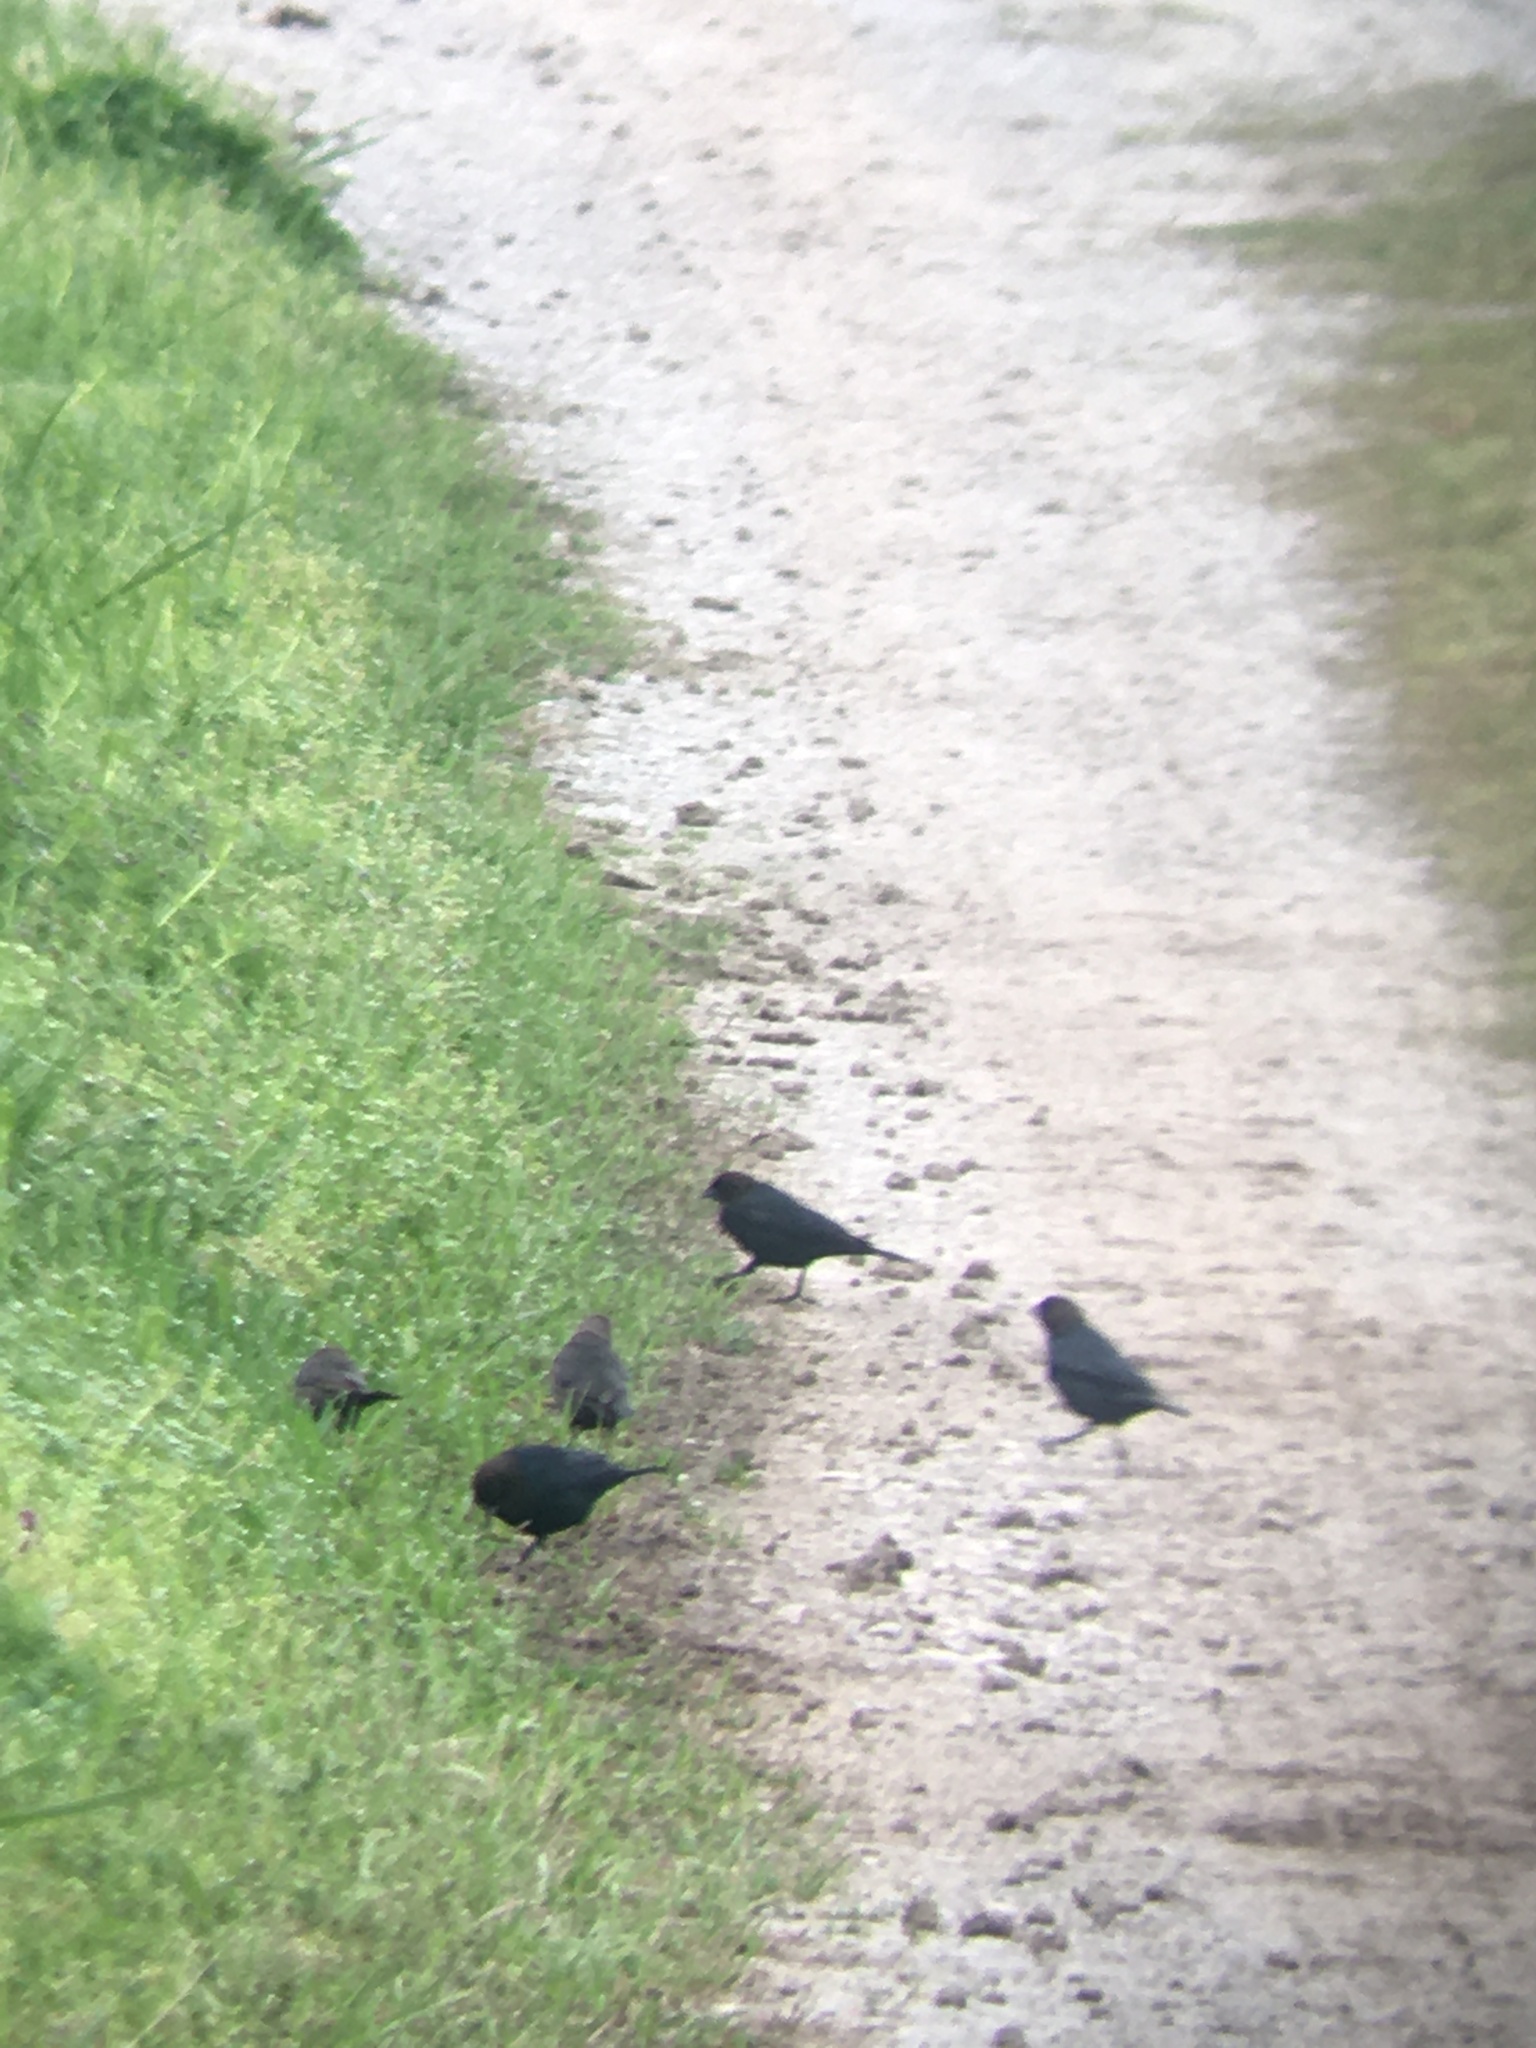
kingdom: Animalia
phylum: Chordata
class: Aves
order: Passeriformes
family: Icteridae
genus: Molothrus
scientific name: Molothrus ater
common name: Brown-headed cowbird
